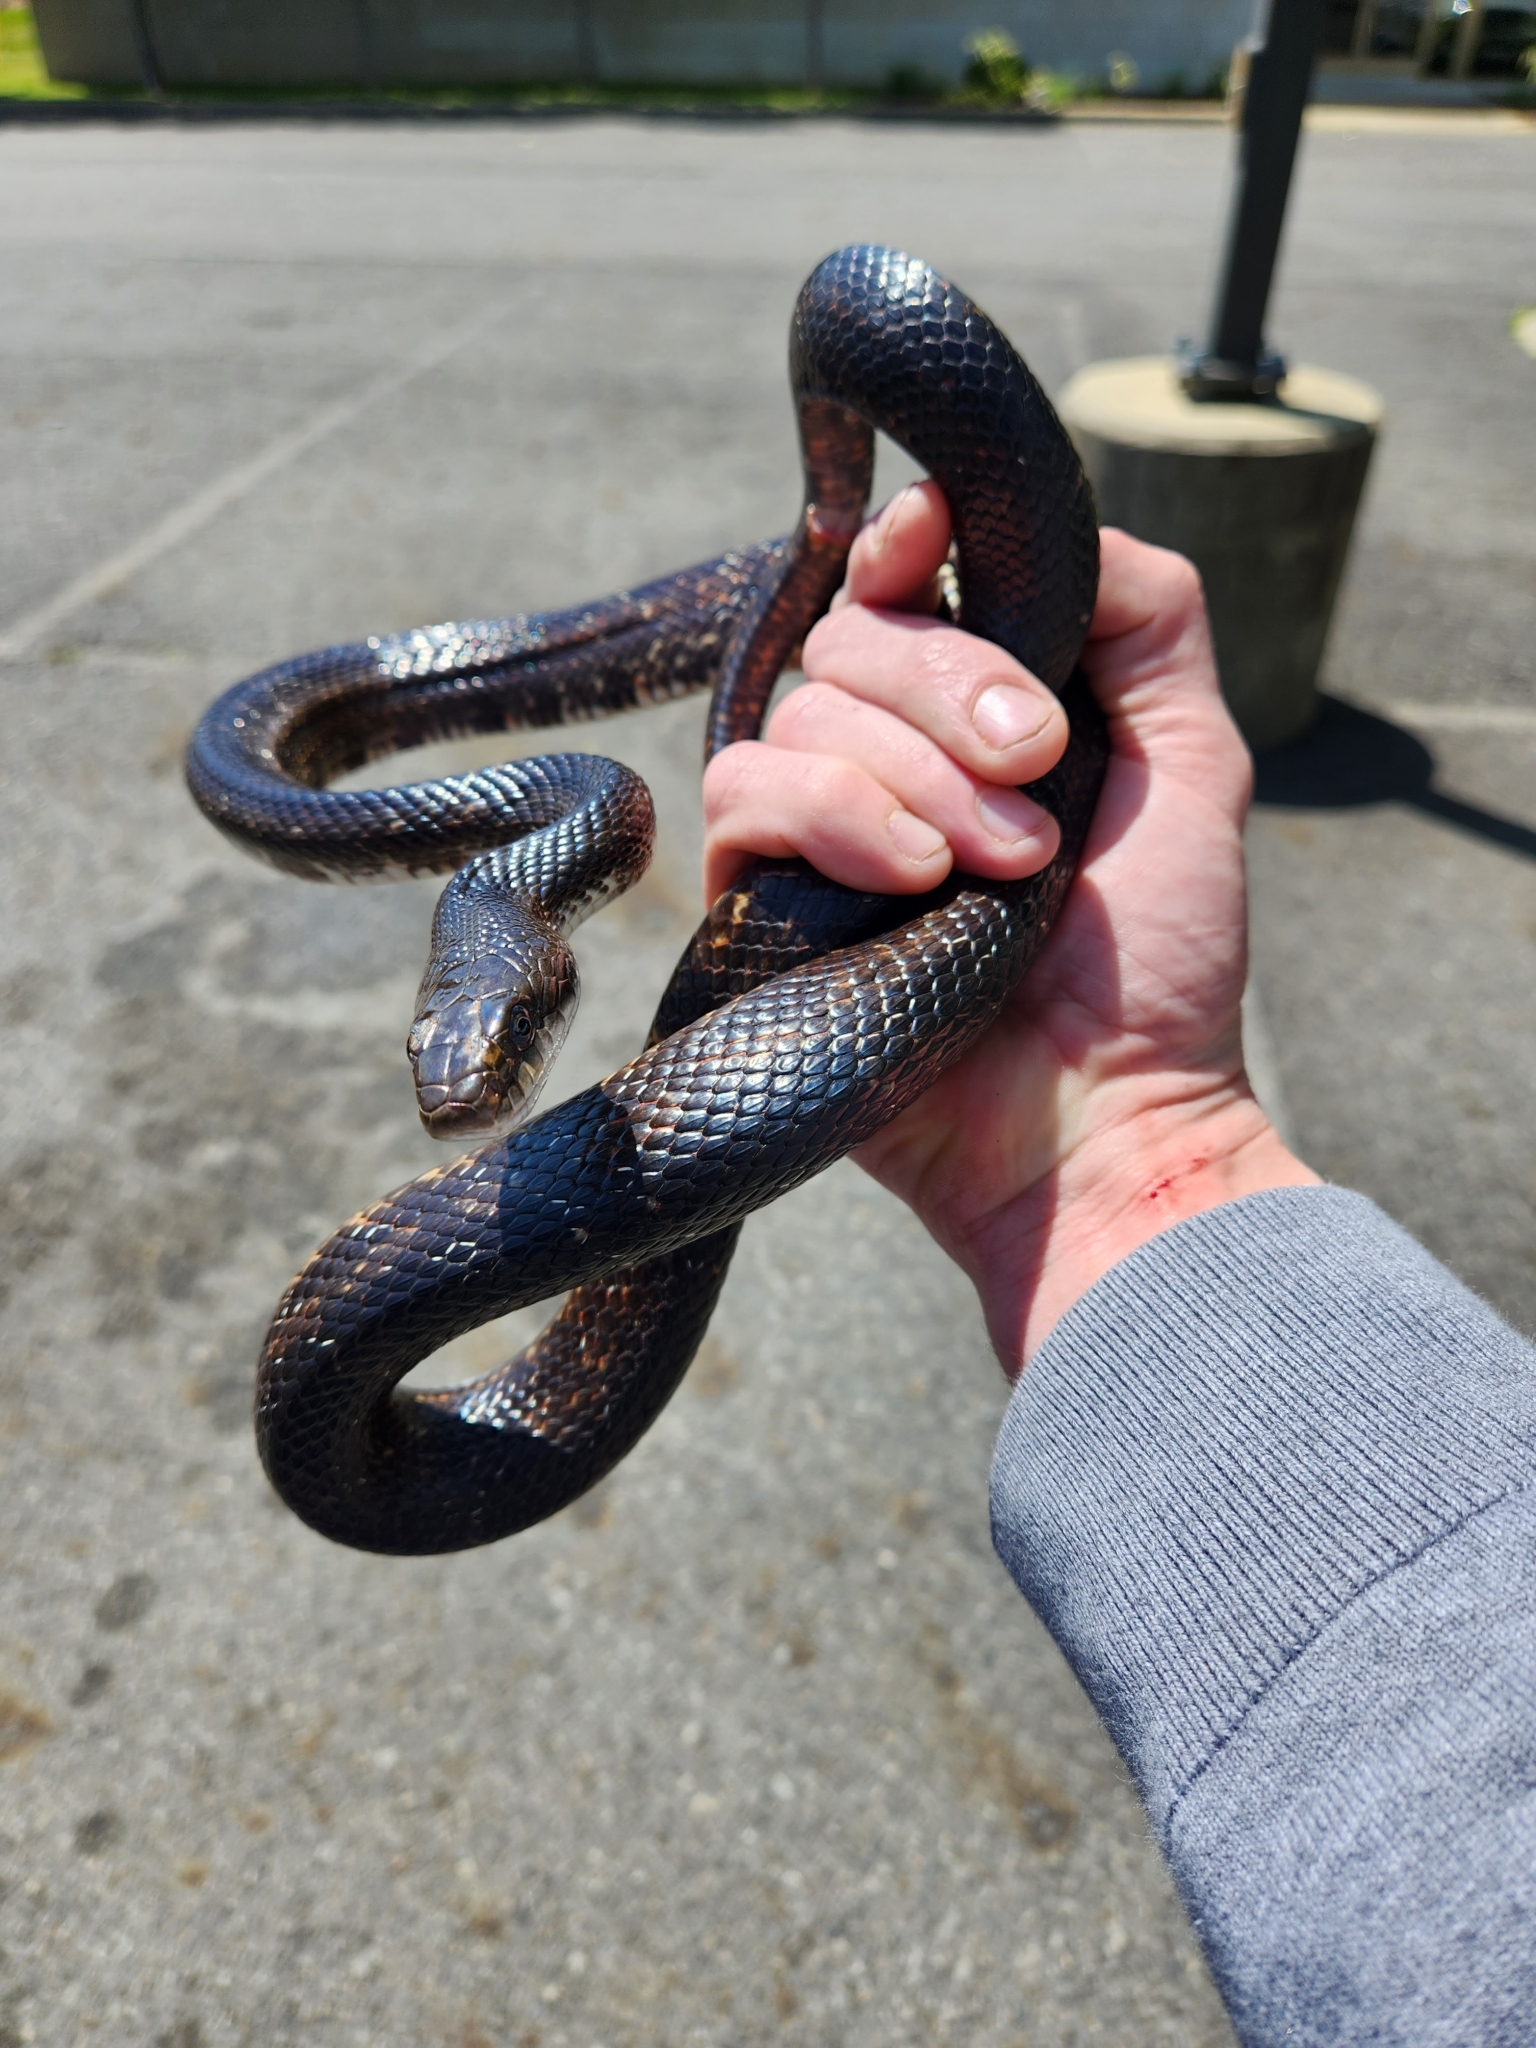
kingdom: Animalia
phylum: Chordata
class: Squamata
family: Colubridae
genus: Pantherophis
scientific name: Pantherophis obsoletus
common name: Black rat snake
